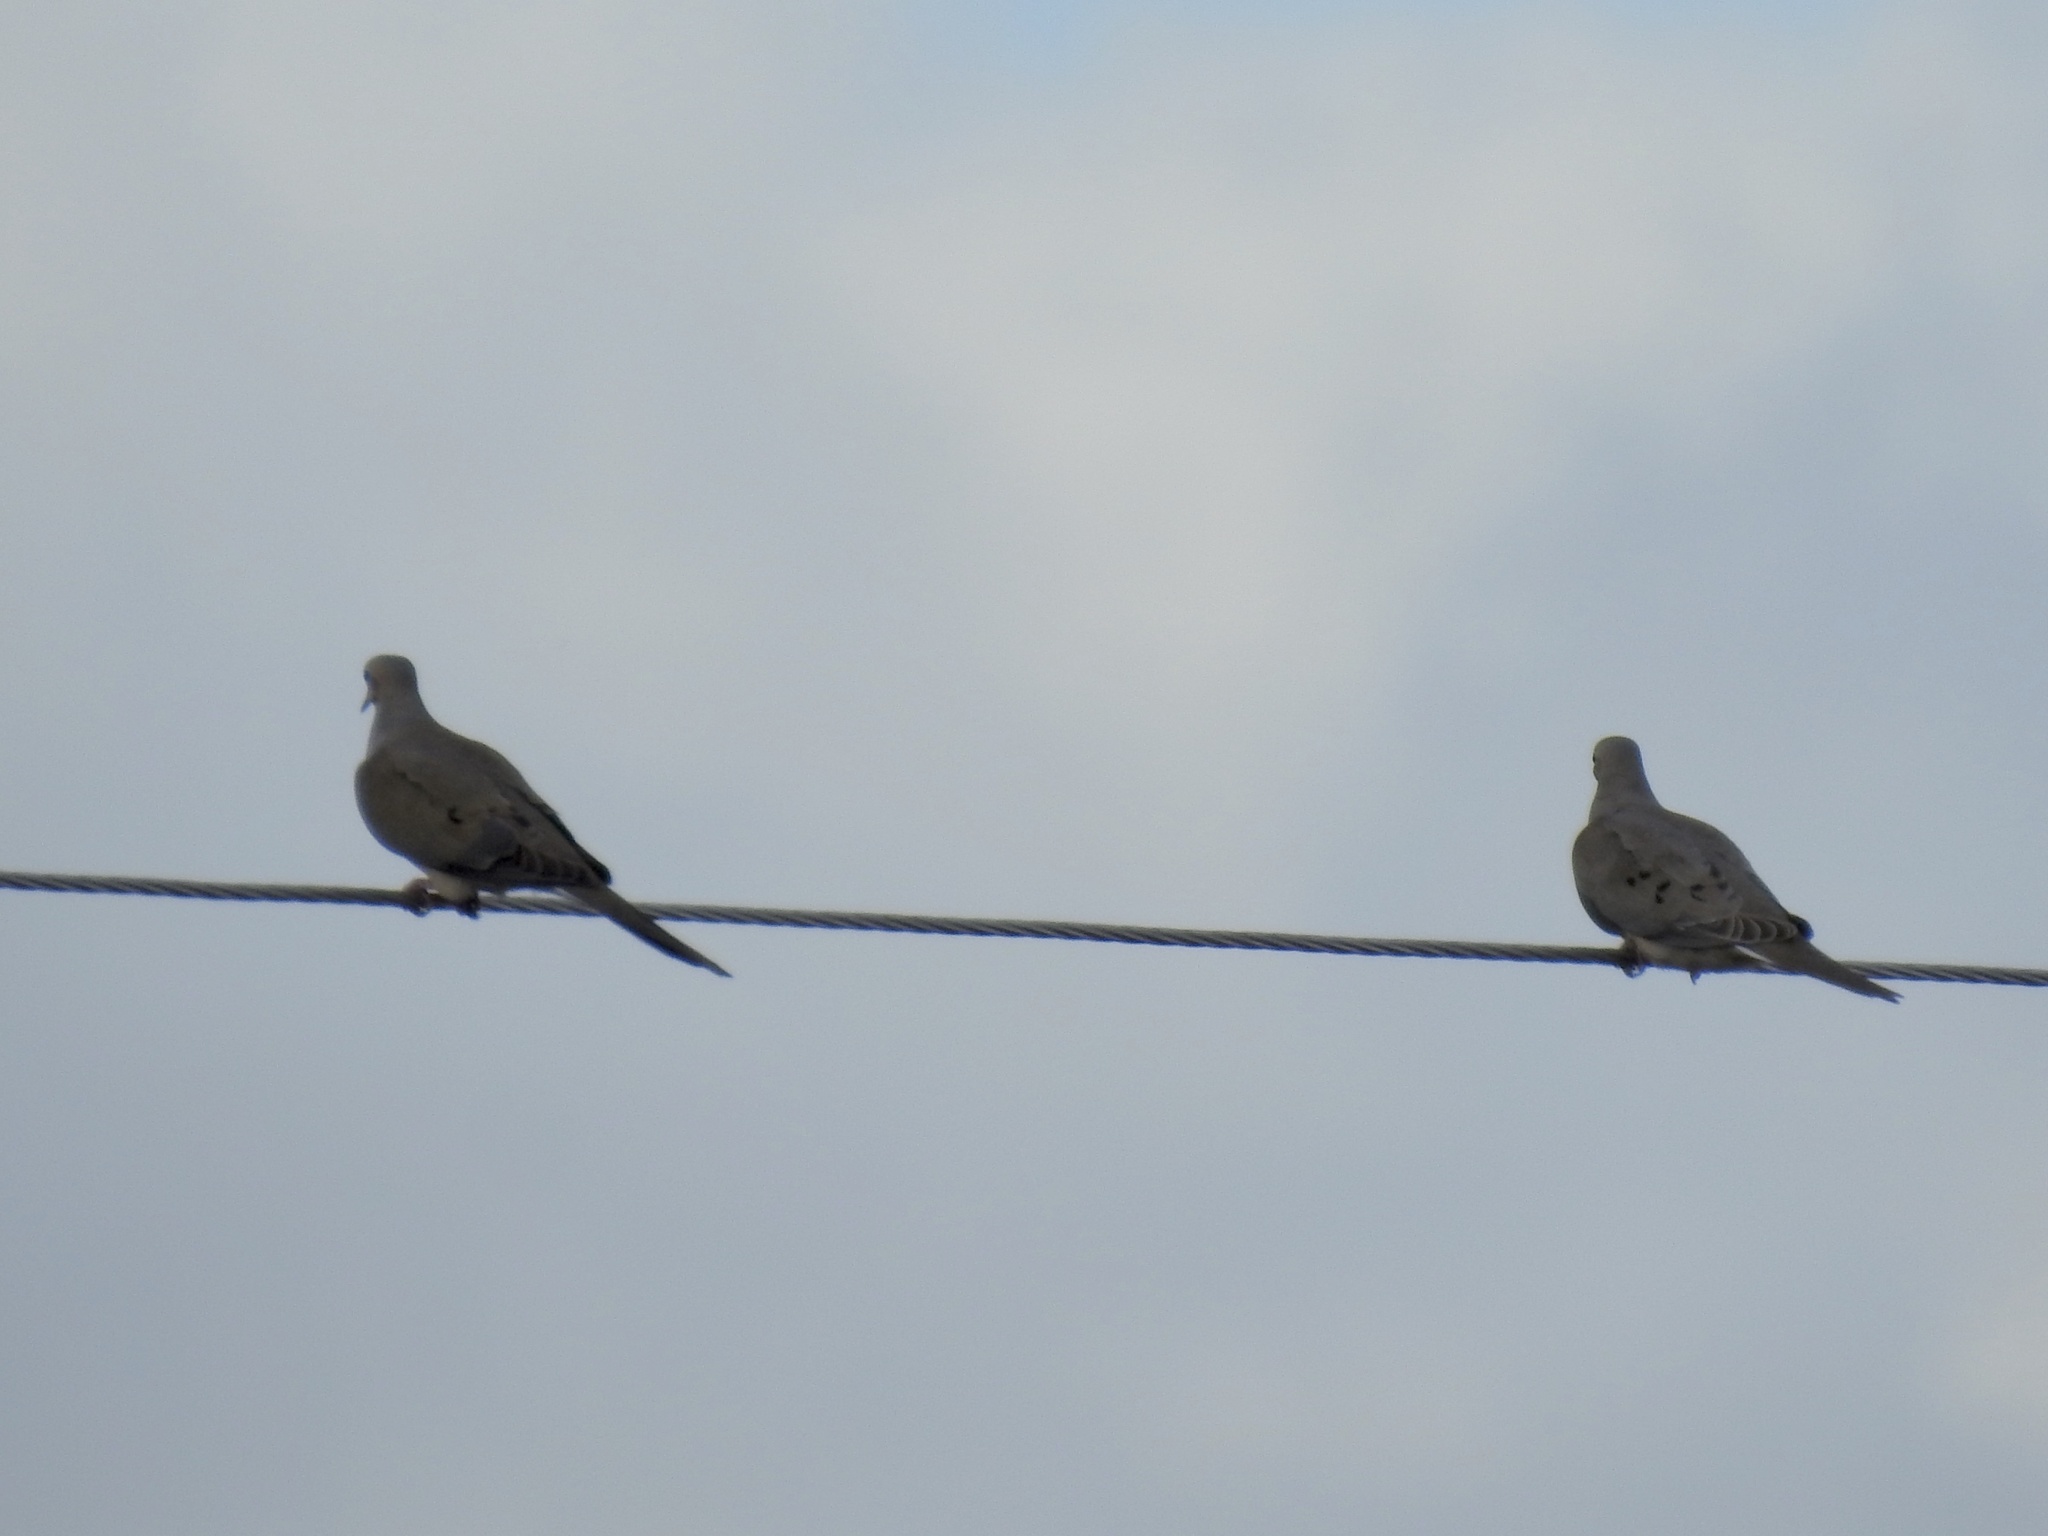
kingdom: Animalia
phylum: Chordata
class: Aves
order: Columbiformes
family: Columbidae
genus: Zenaida
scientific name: Zenaida macroura
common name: Mourning dove
